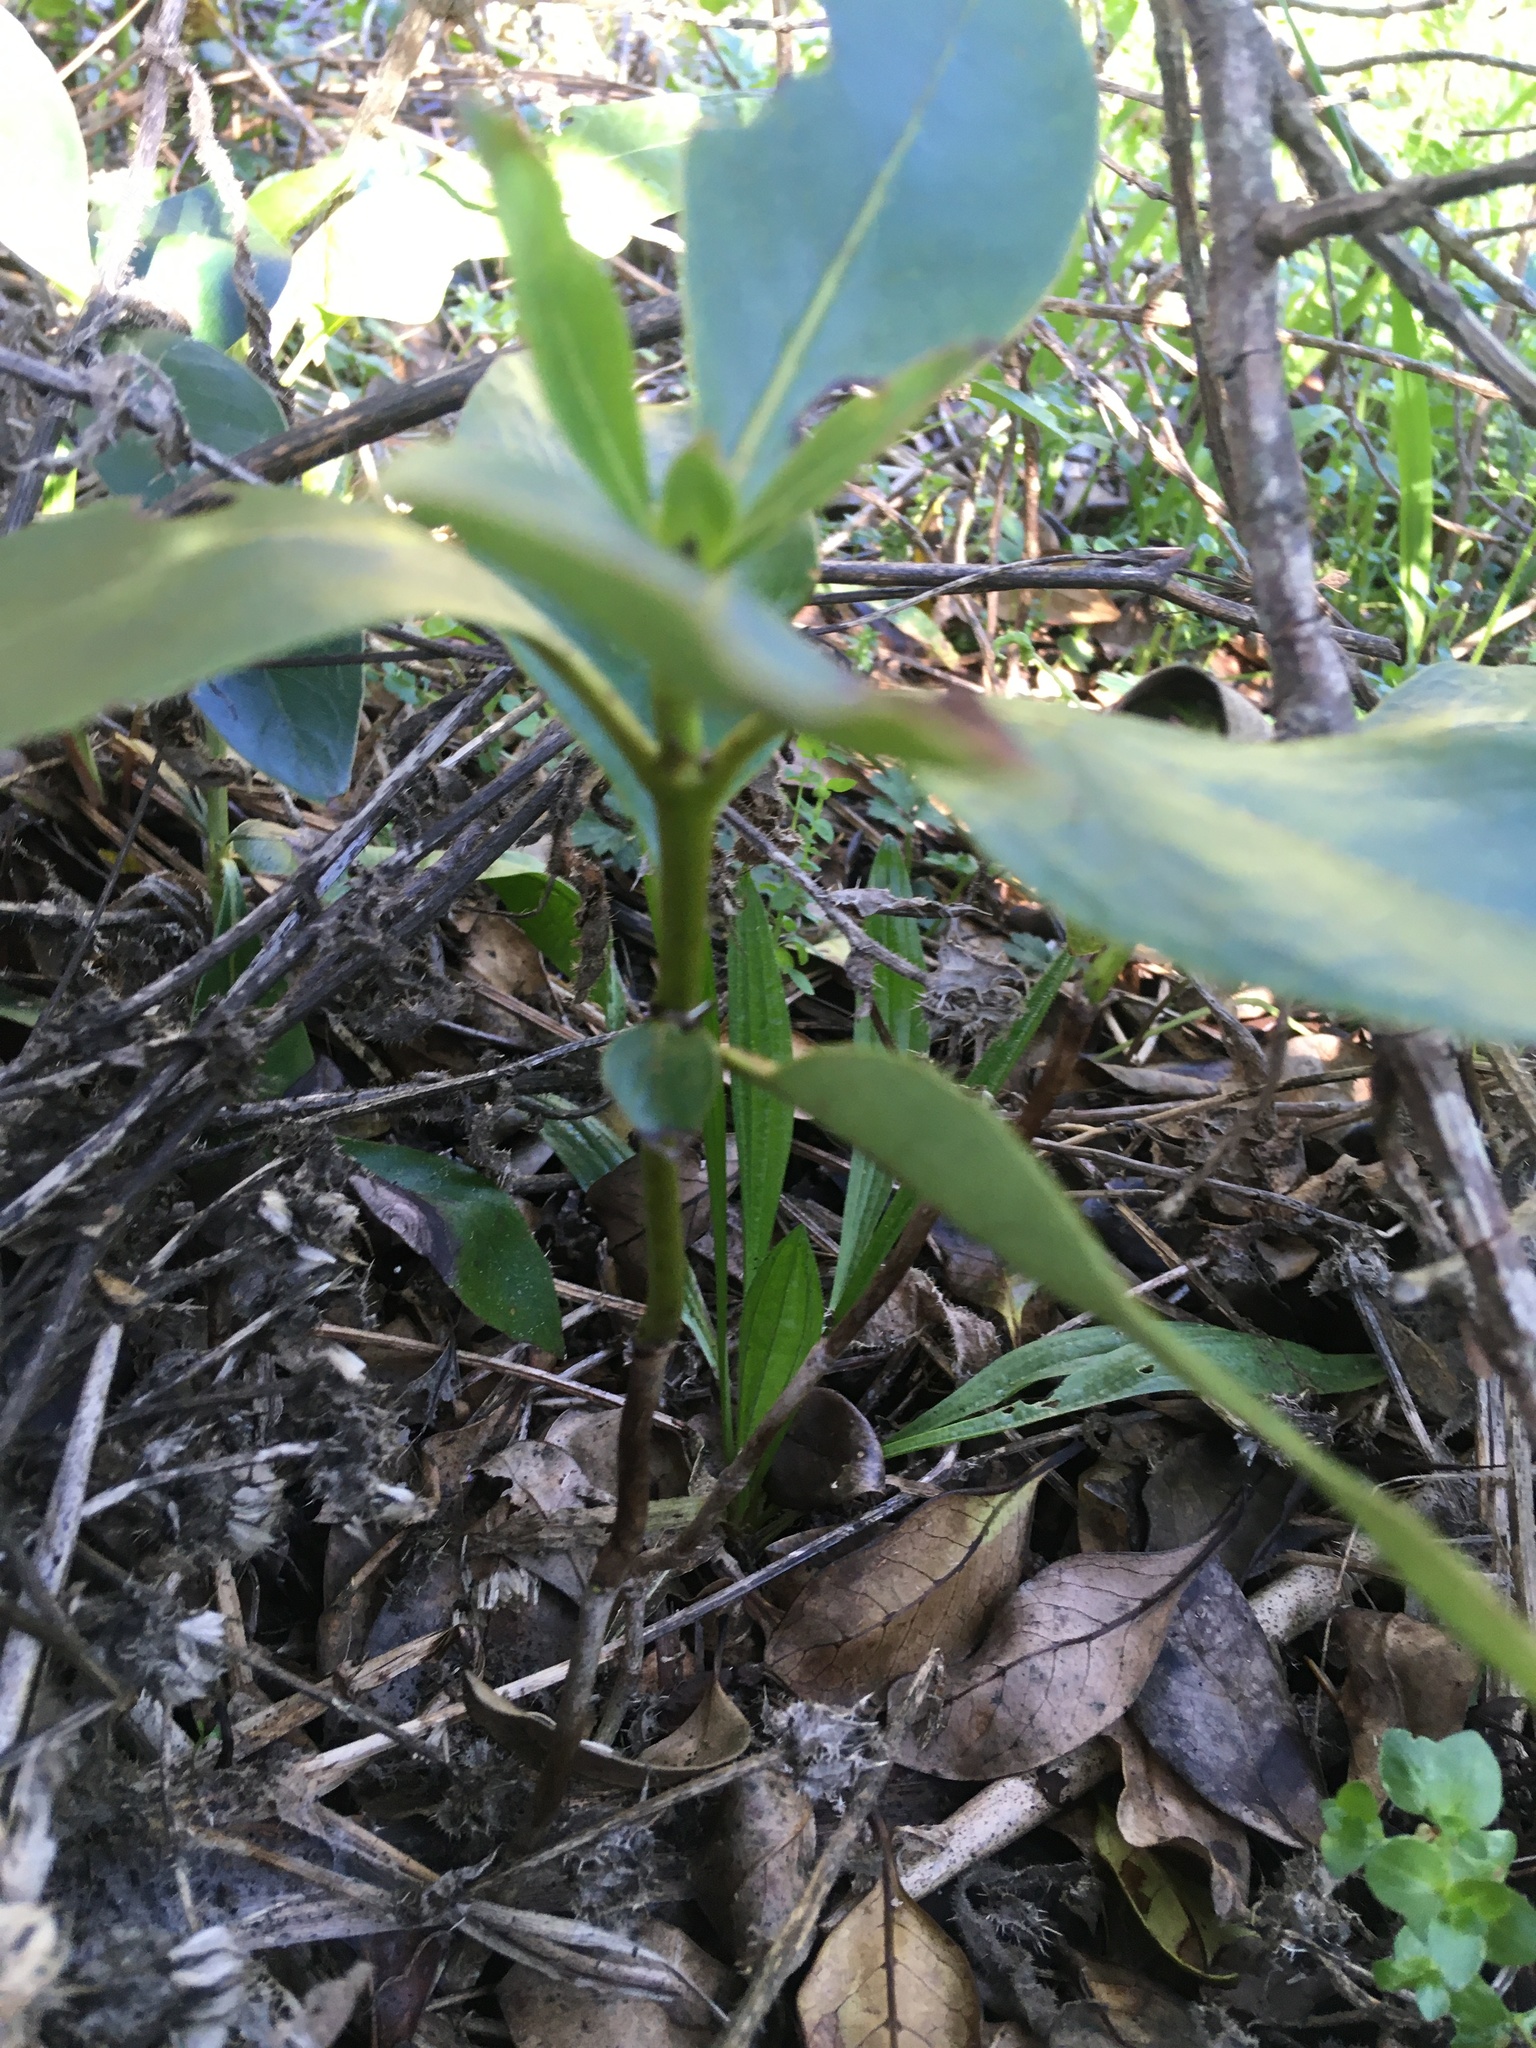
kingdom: Plantae
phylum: Tracheophyta
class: Magnoliopsida
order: Gentianales
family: Rubiaceae
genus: Coprosma
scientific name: Coprosma robusta
